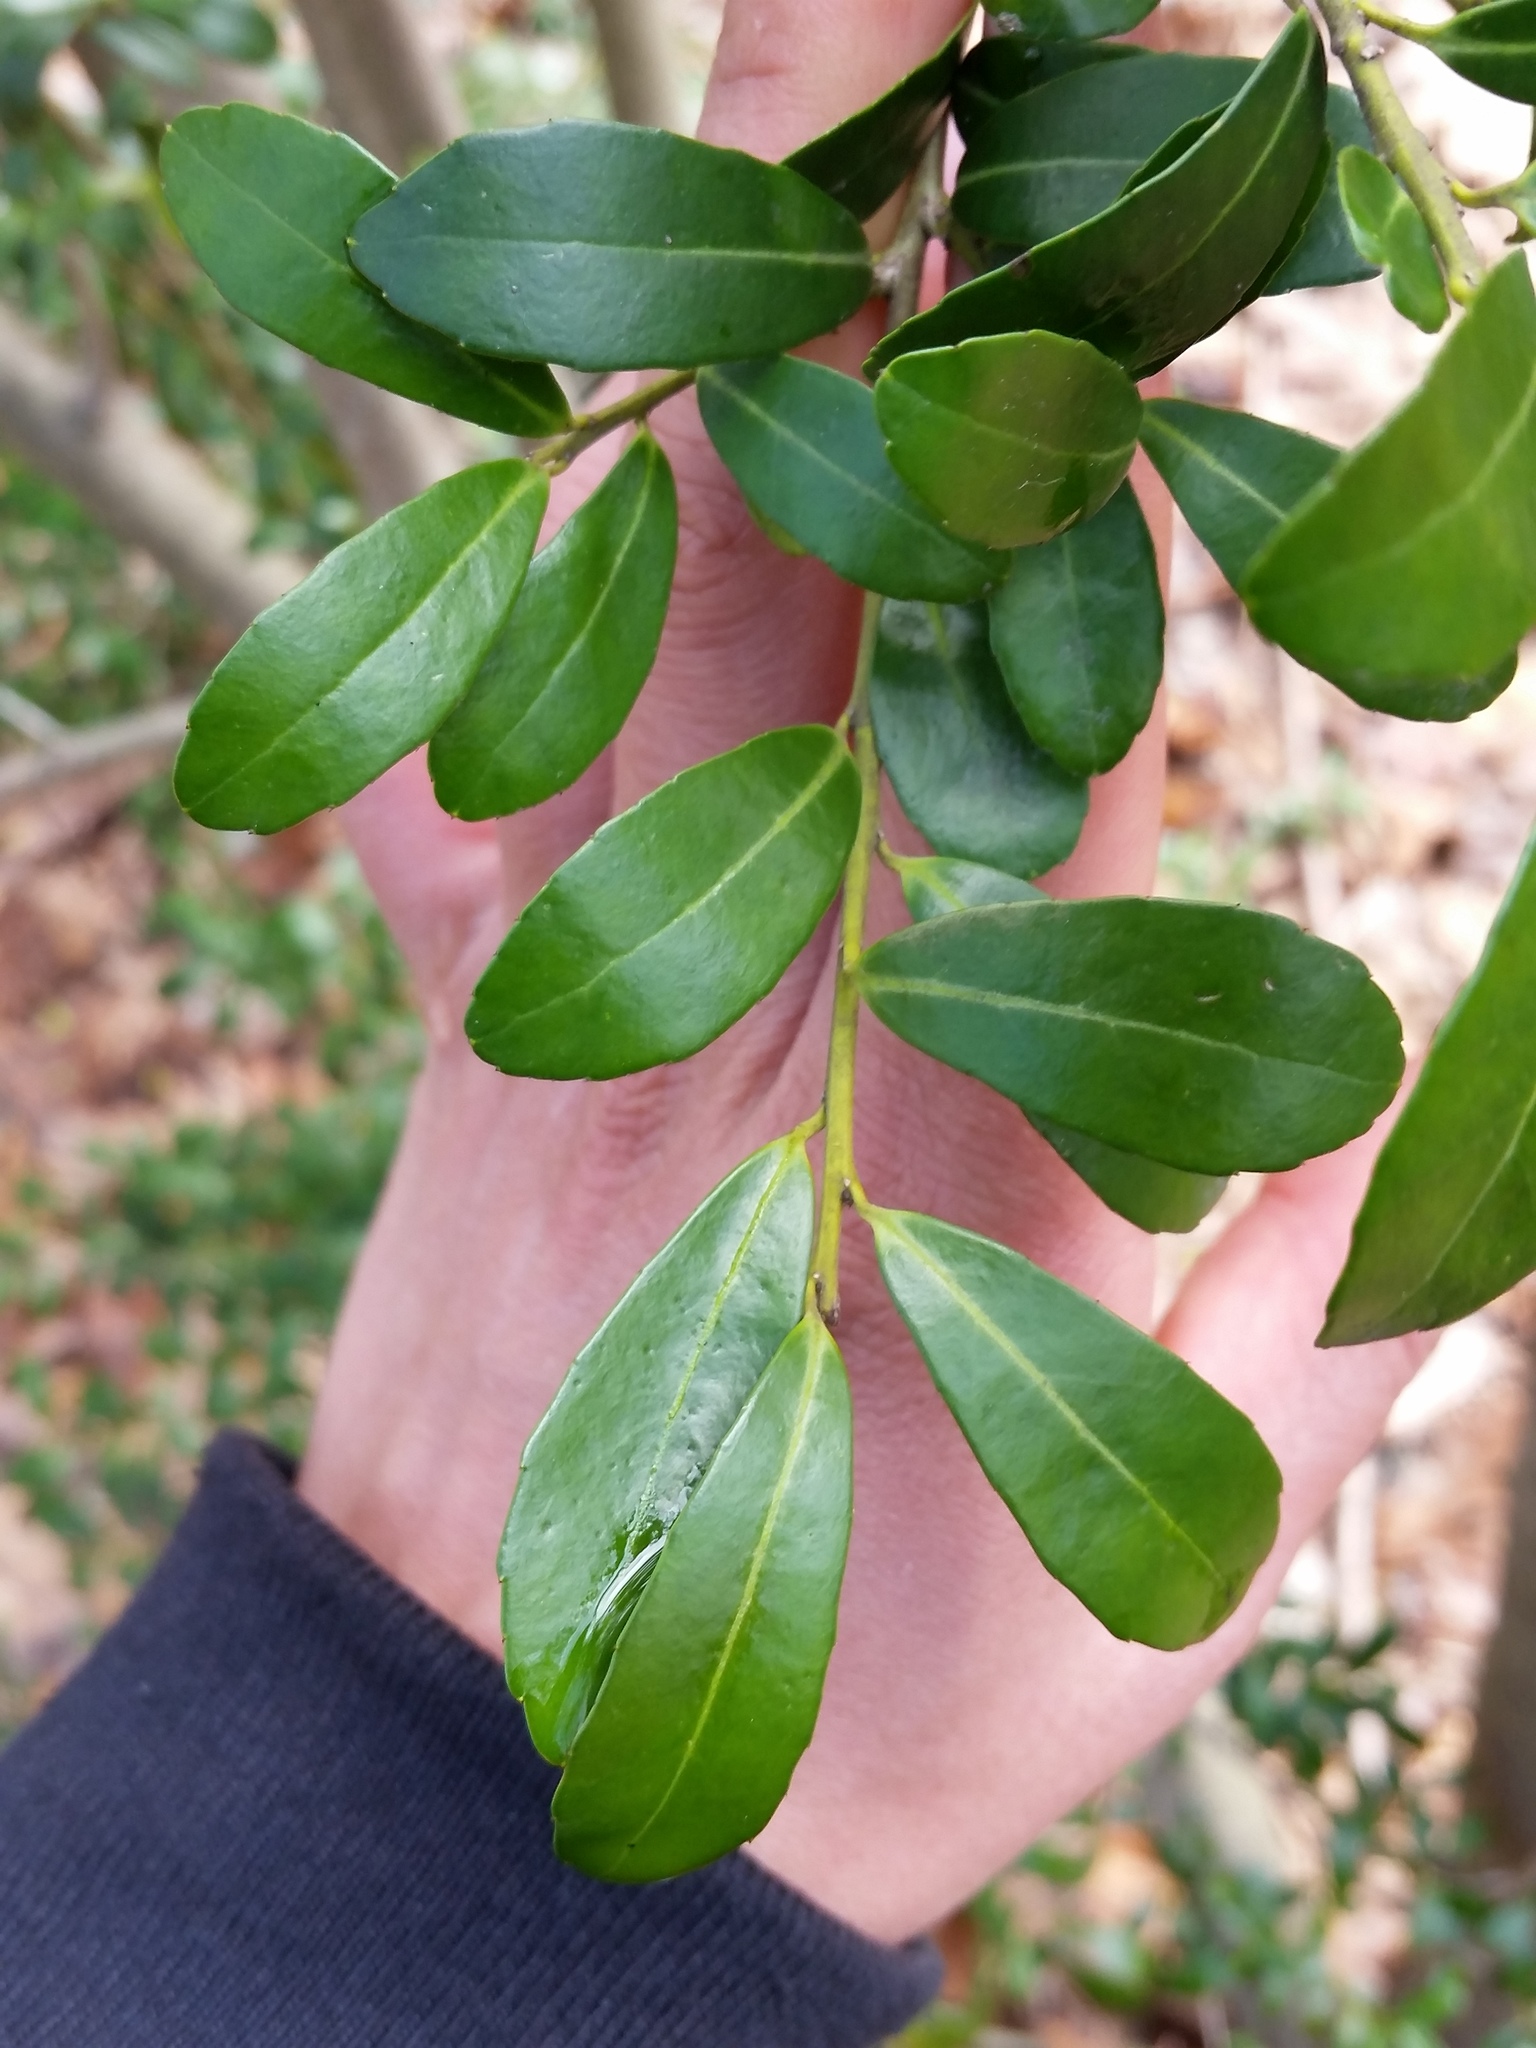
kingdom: Plantae
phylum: Tracheophyta
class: Magnoliopsida
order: Aquifoliales
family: Aquifoliaceae
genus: Ilex
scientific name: Ilex crenata
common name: Japanese holly
